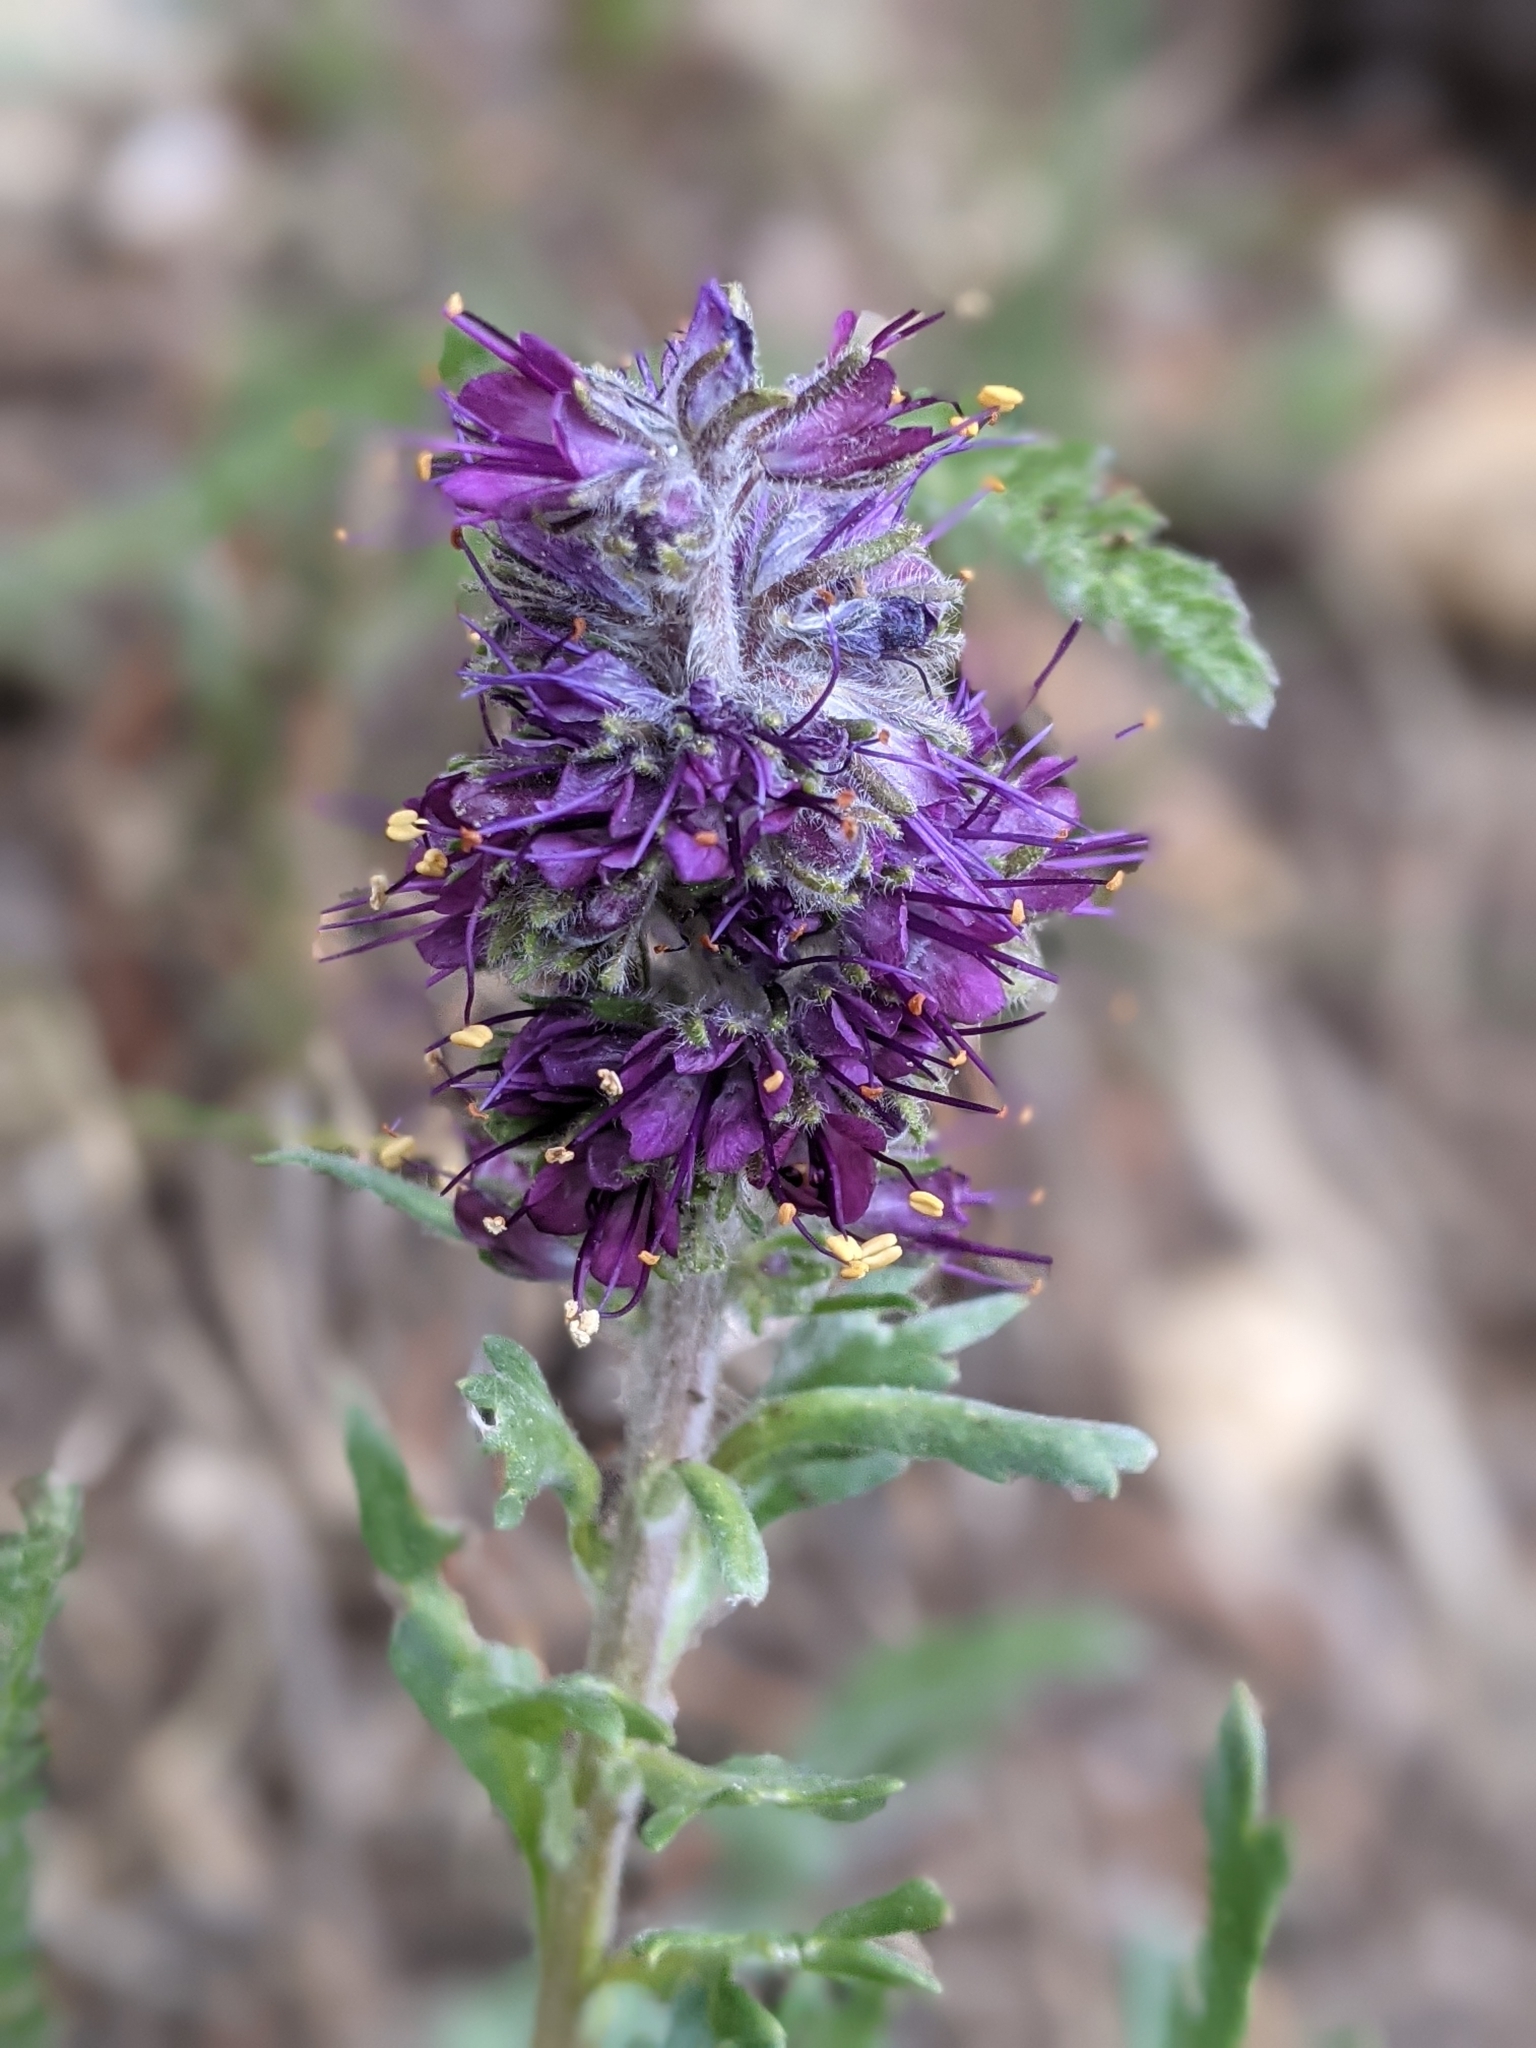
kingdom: Plantae
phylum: Tracheophyta
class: Magnoliopsida
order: Boraginales
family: Hydrophyllaceae
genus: Phacelia
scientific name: Phacelia sericea
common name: Silky phacelia
